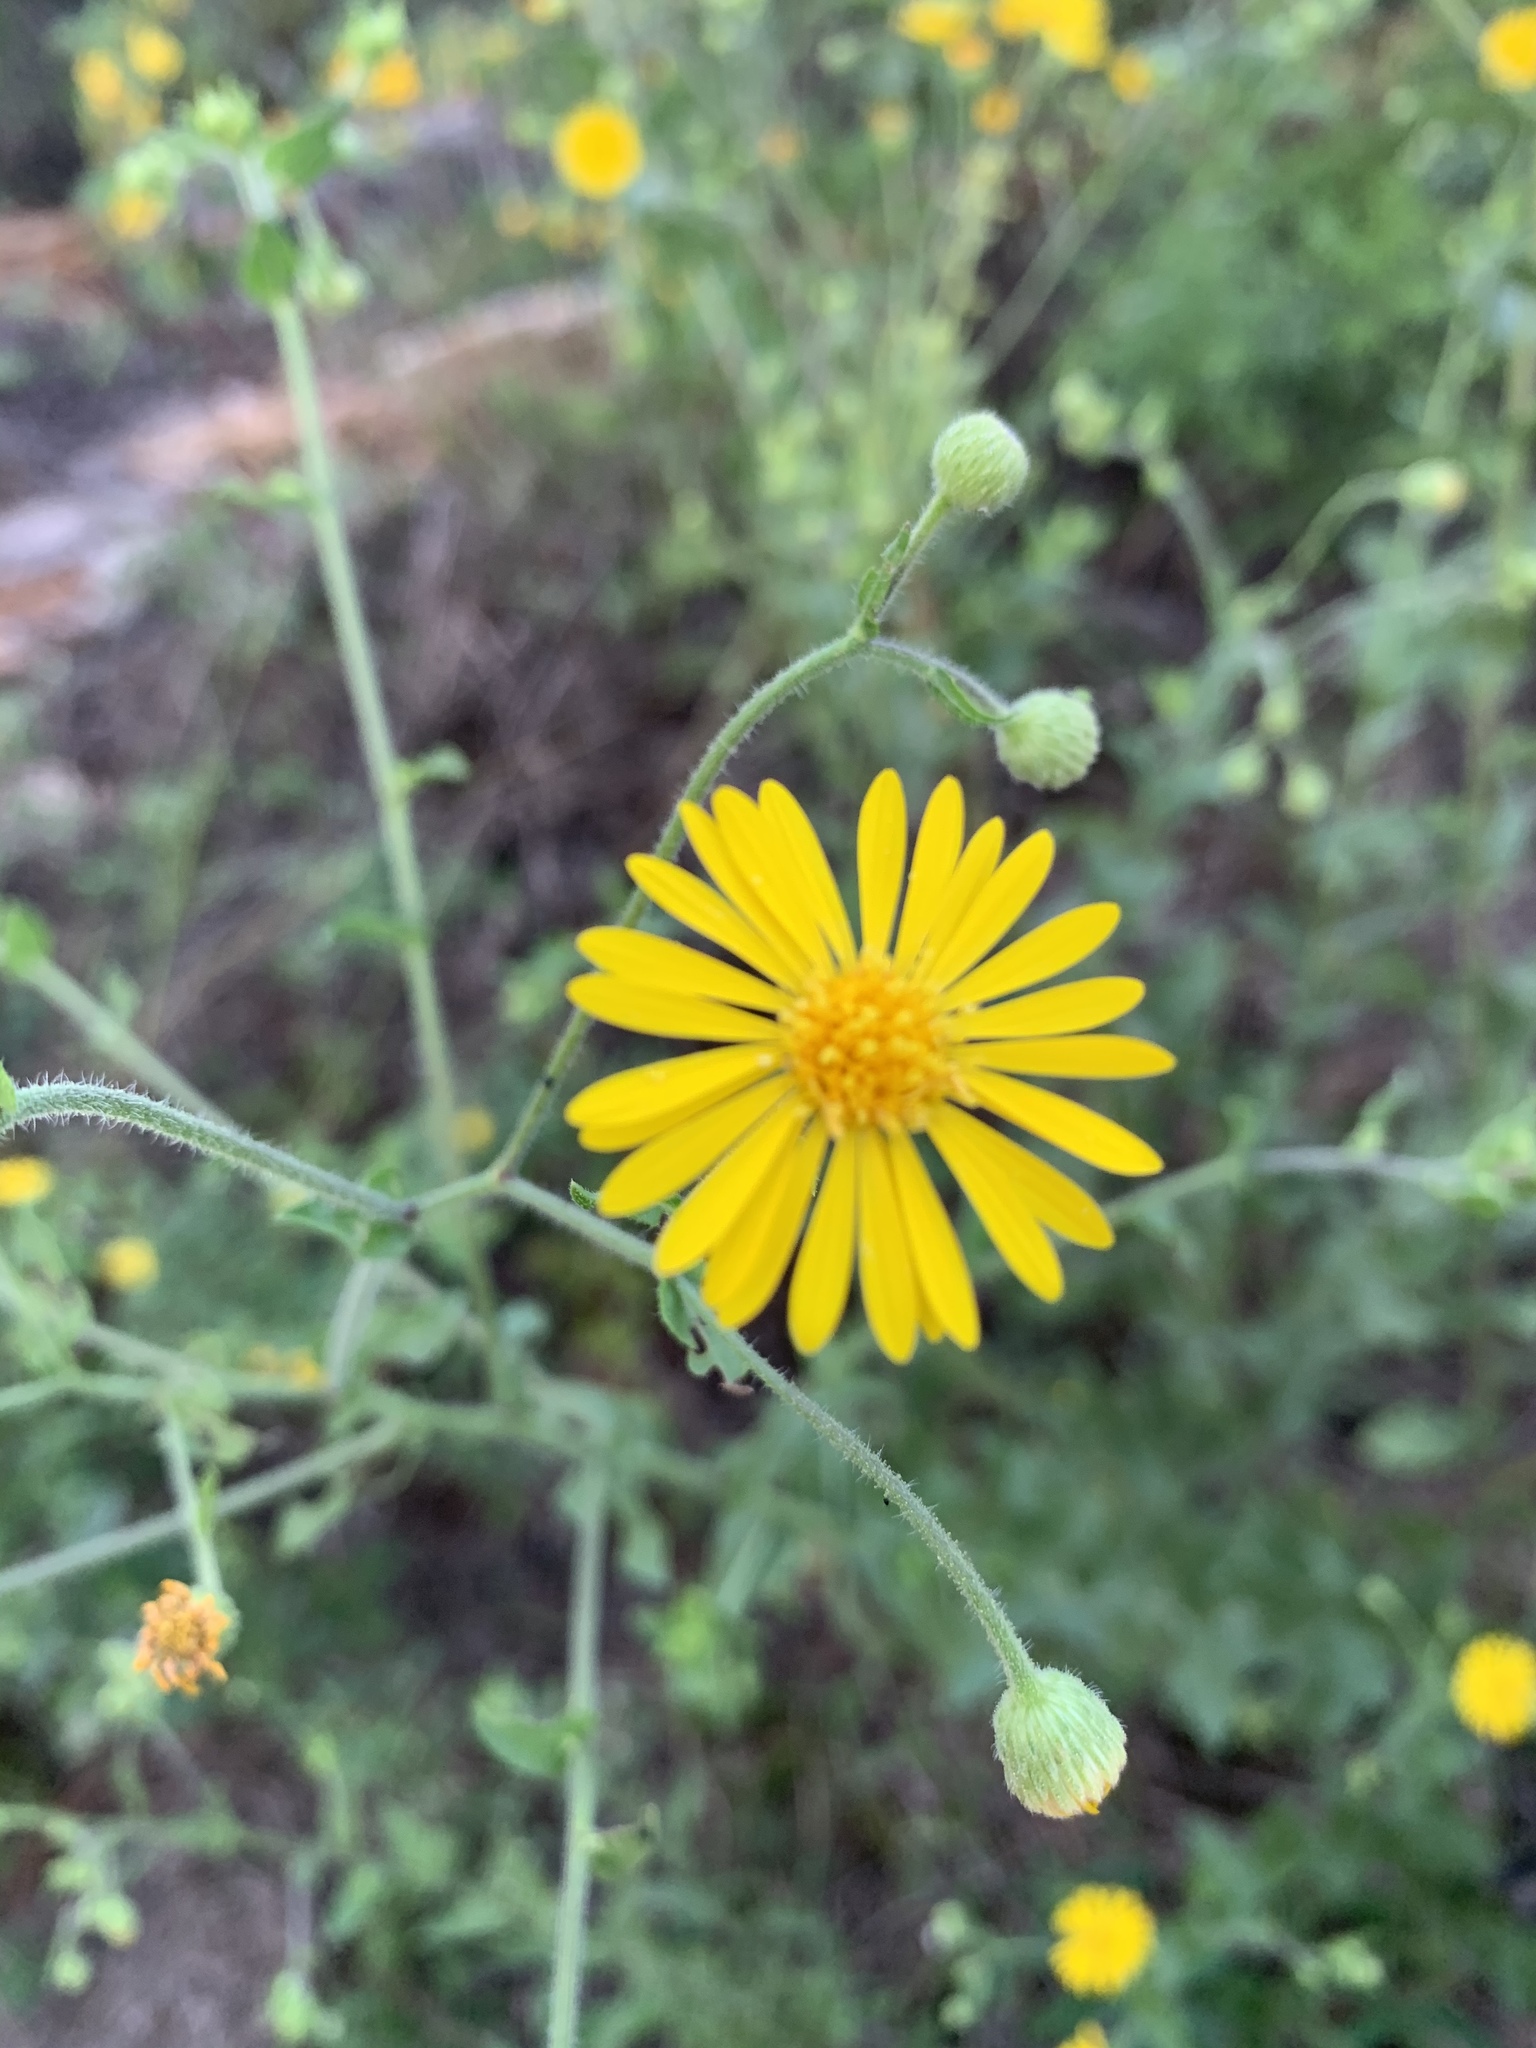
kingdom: Plantae
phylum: Tracheophyta
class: Magnoliopsida
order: Asterales
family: Asteraceae
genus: Heterotheca
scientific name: Heterotheca subaxillaris
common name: Camphorweed
